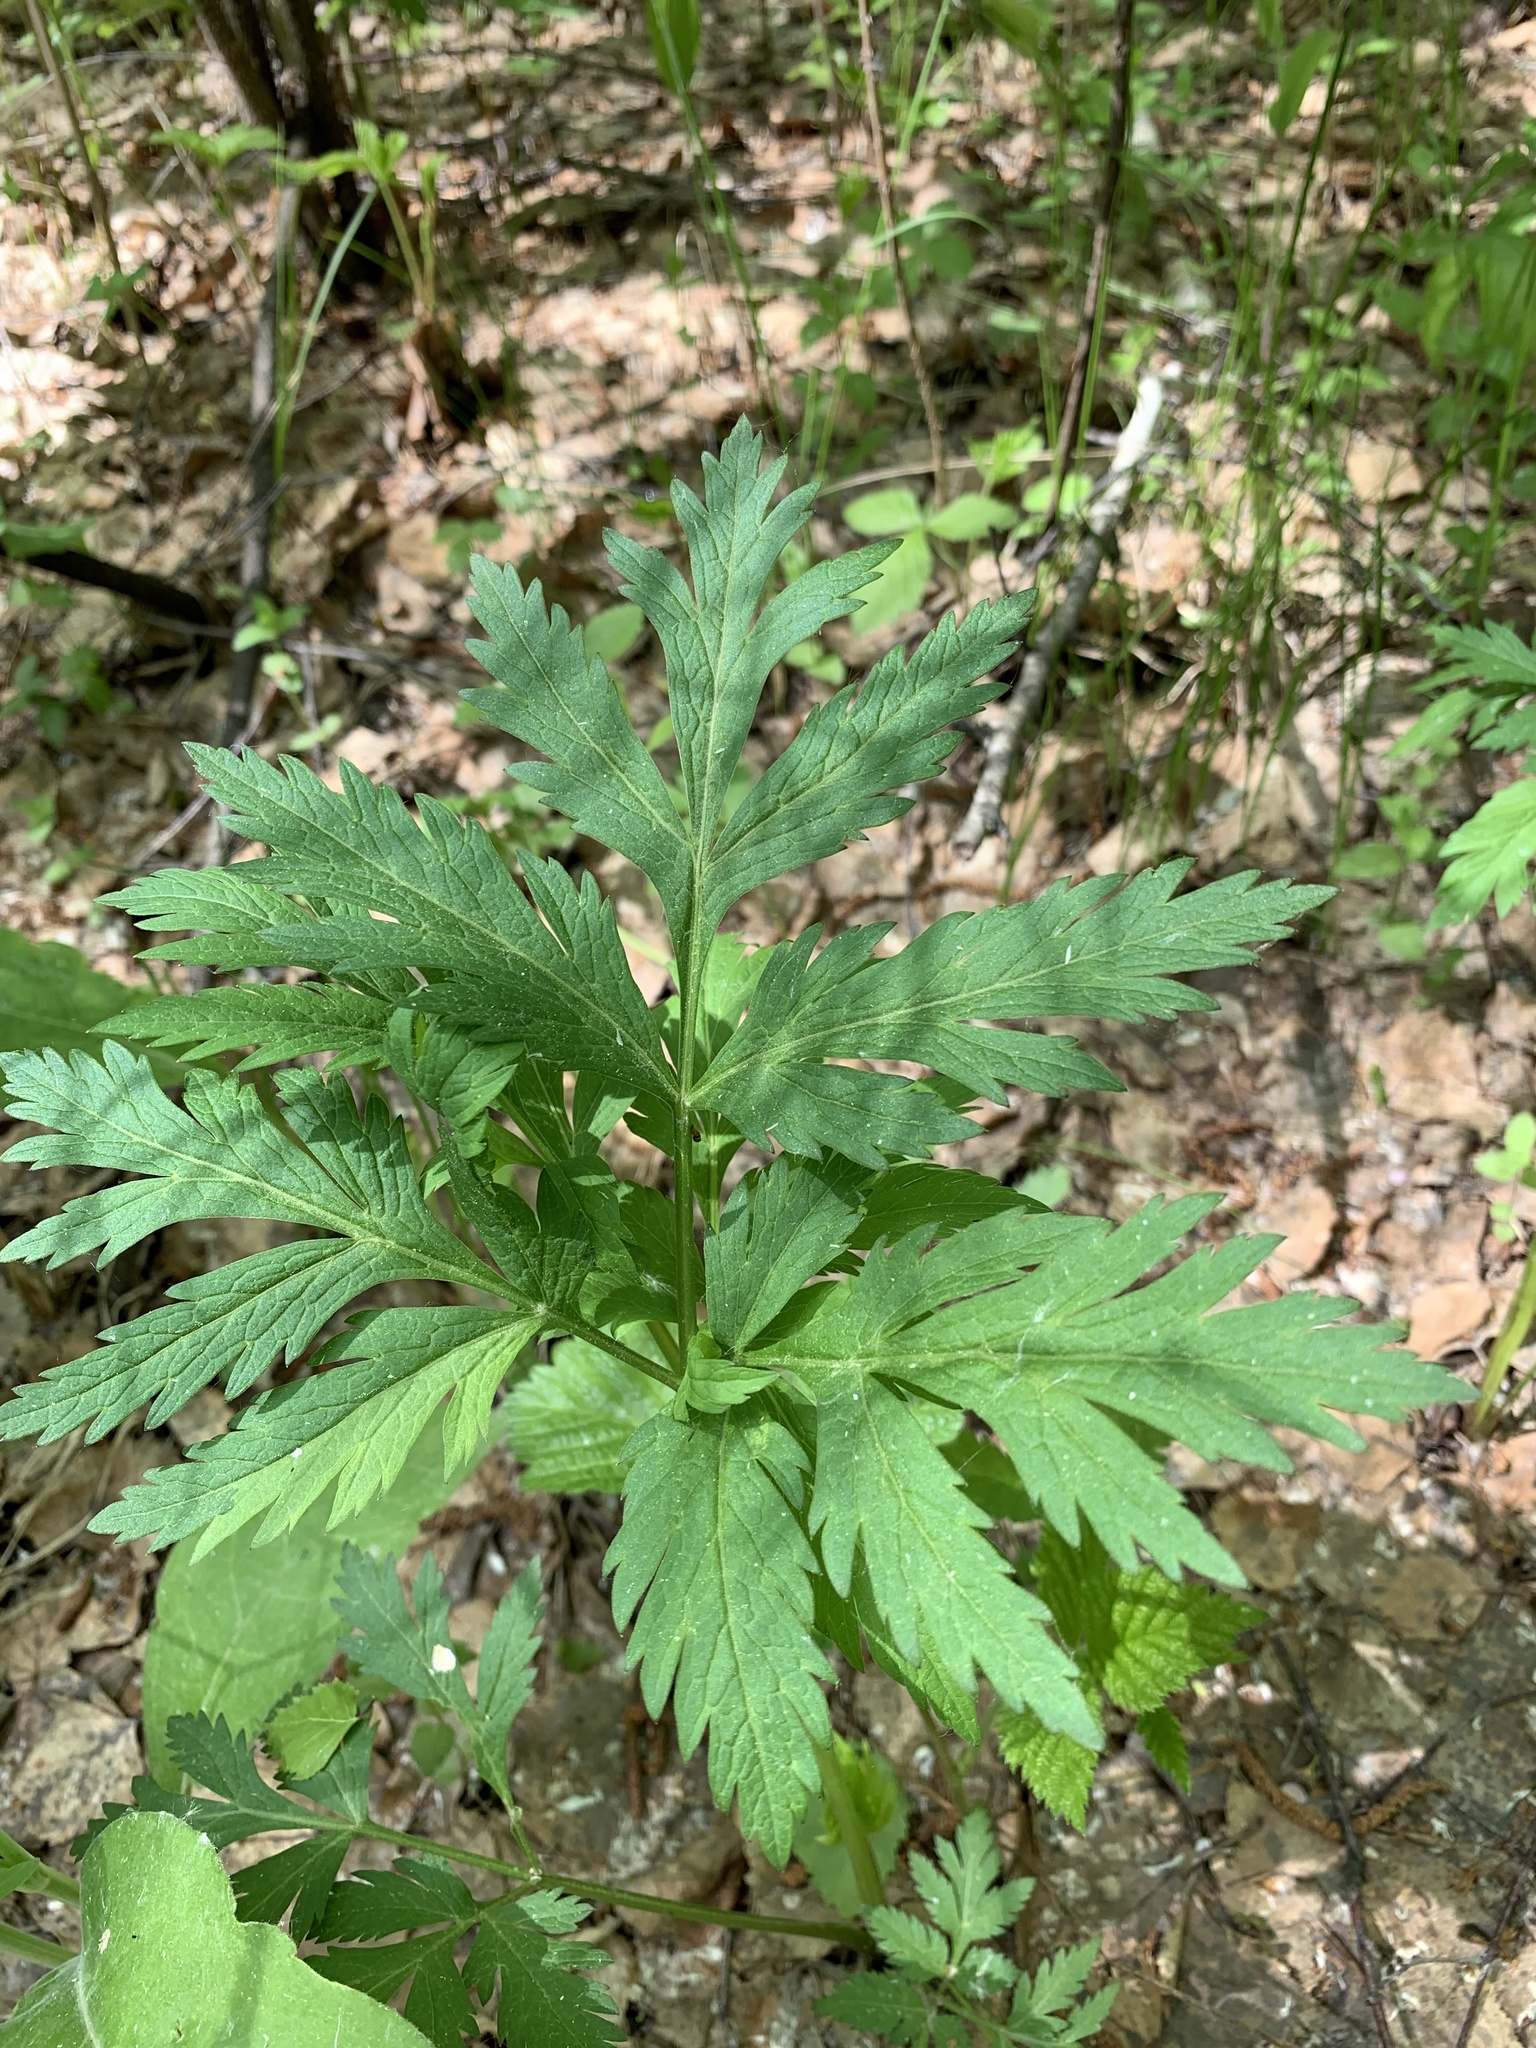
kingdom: Plantae
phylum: Tracheophyta
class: Magnoliopsida
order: Apiales
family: Apiaceae
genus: Pleurospermum
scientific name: Pleurospermum uralense
